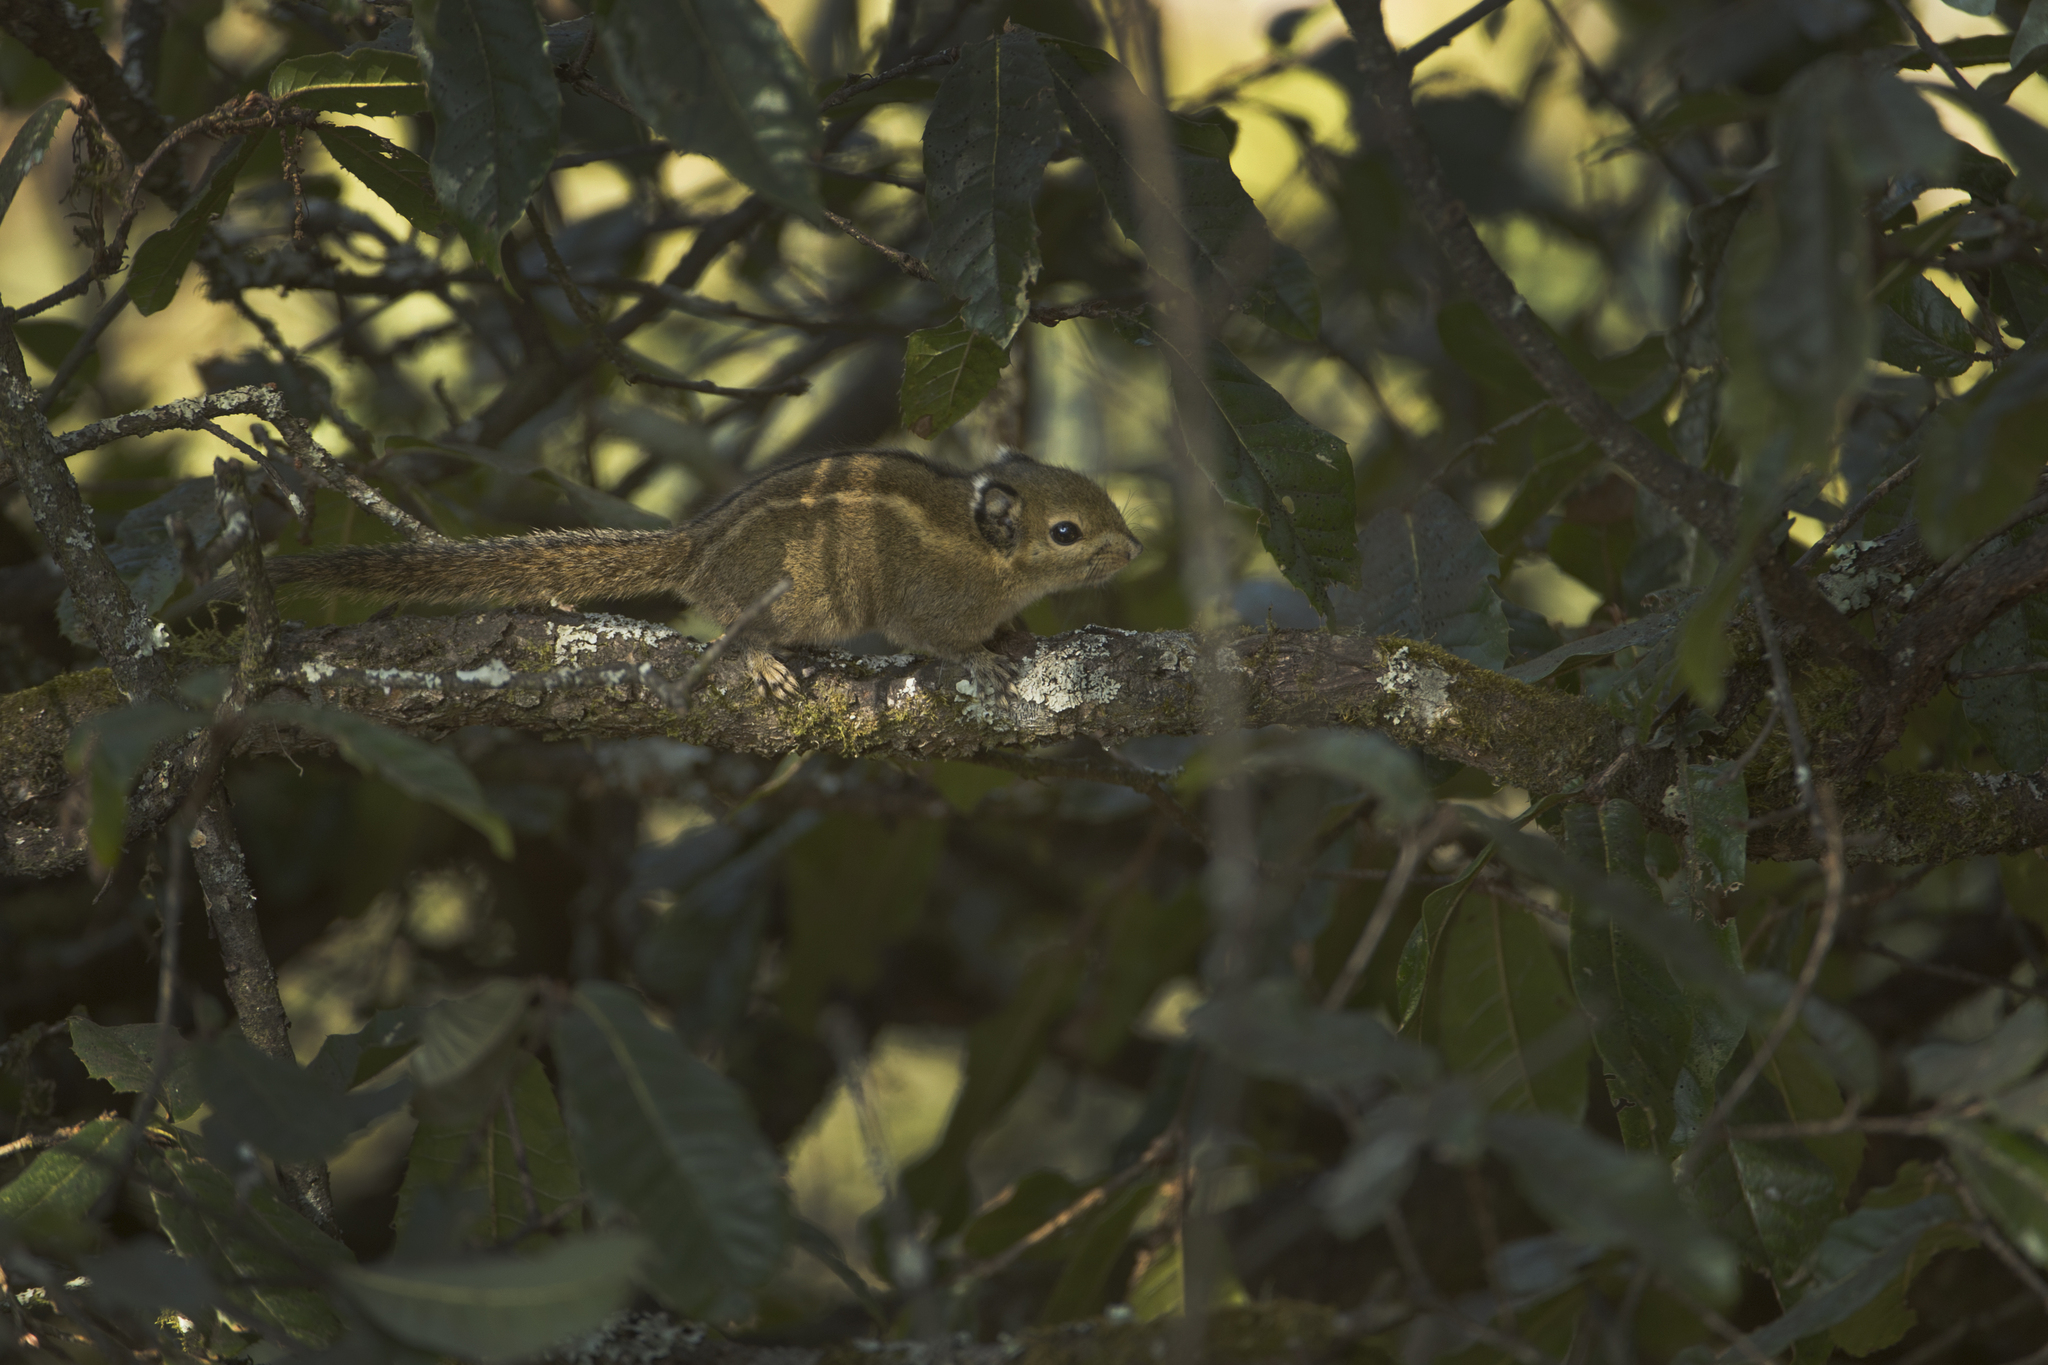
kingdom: Animalia
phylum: Chordata
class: Mammalia
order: Rodentia
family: Sciuridae
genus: Tamiops
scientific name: Tamiops mcclellandii
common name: Himalayan striped squirrel
